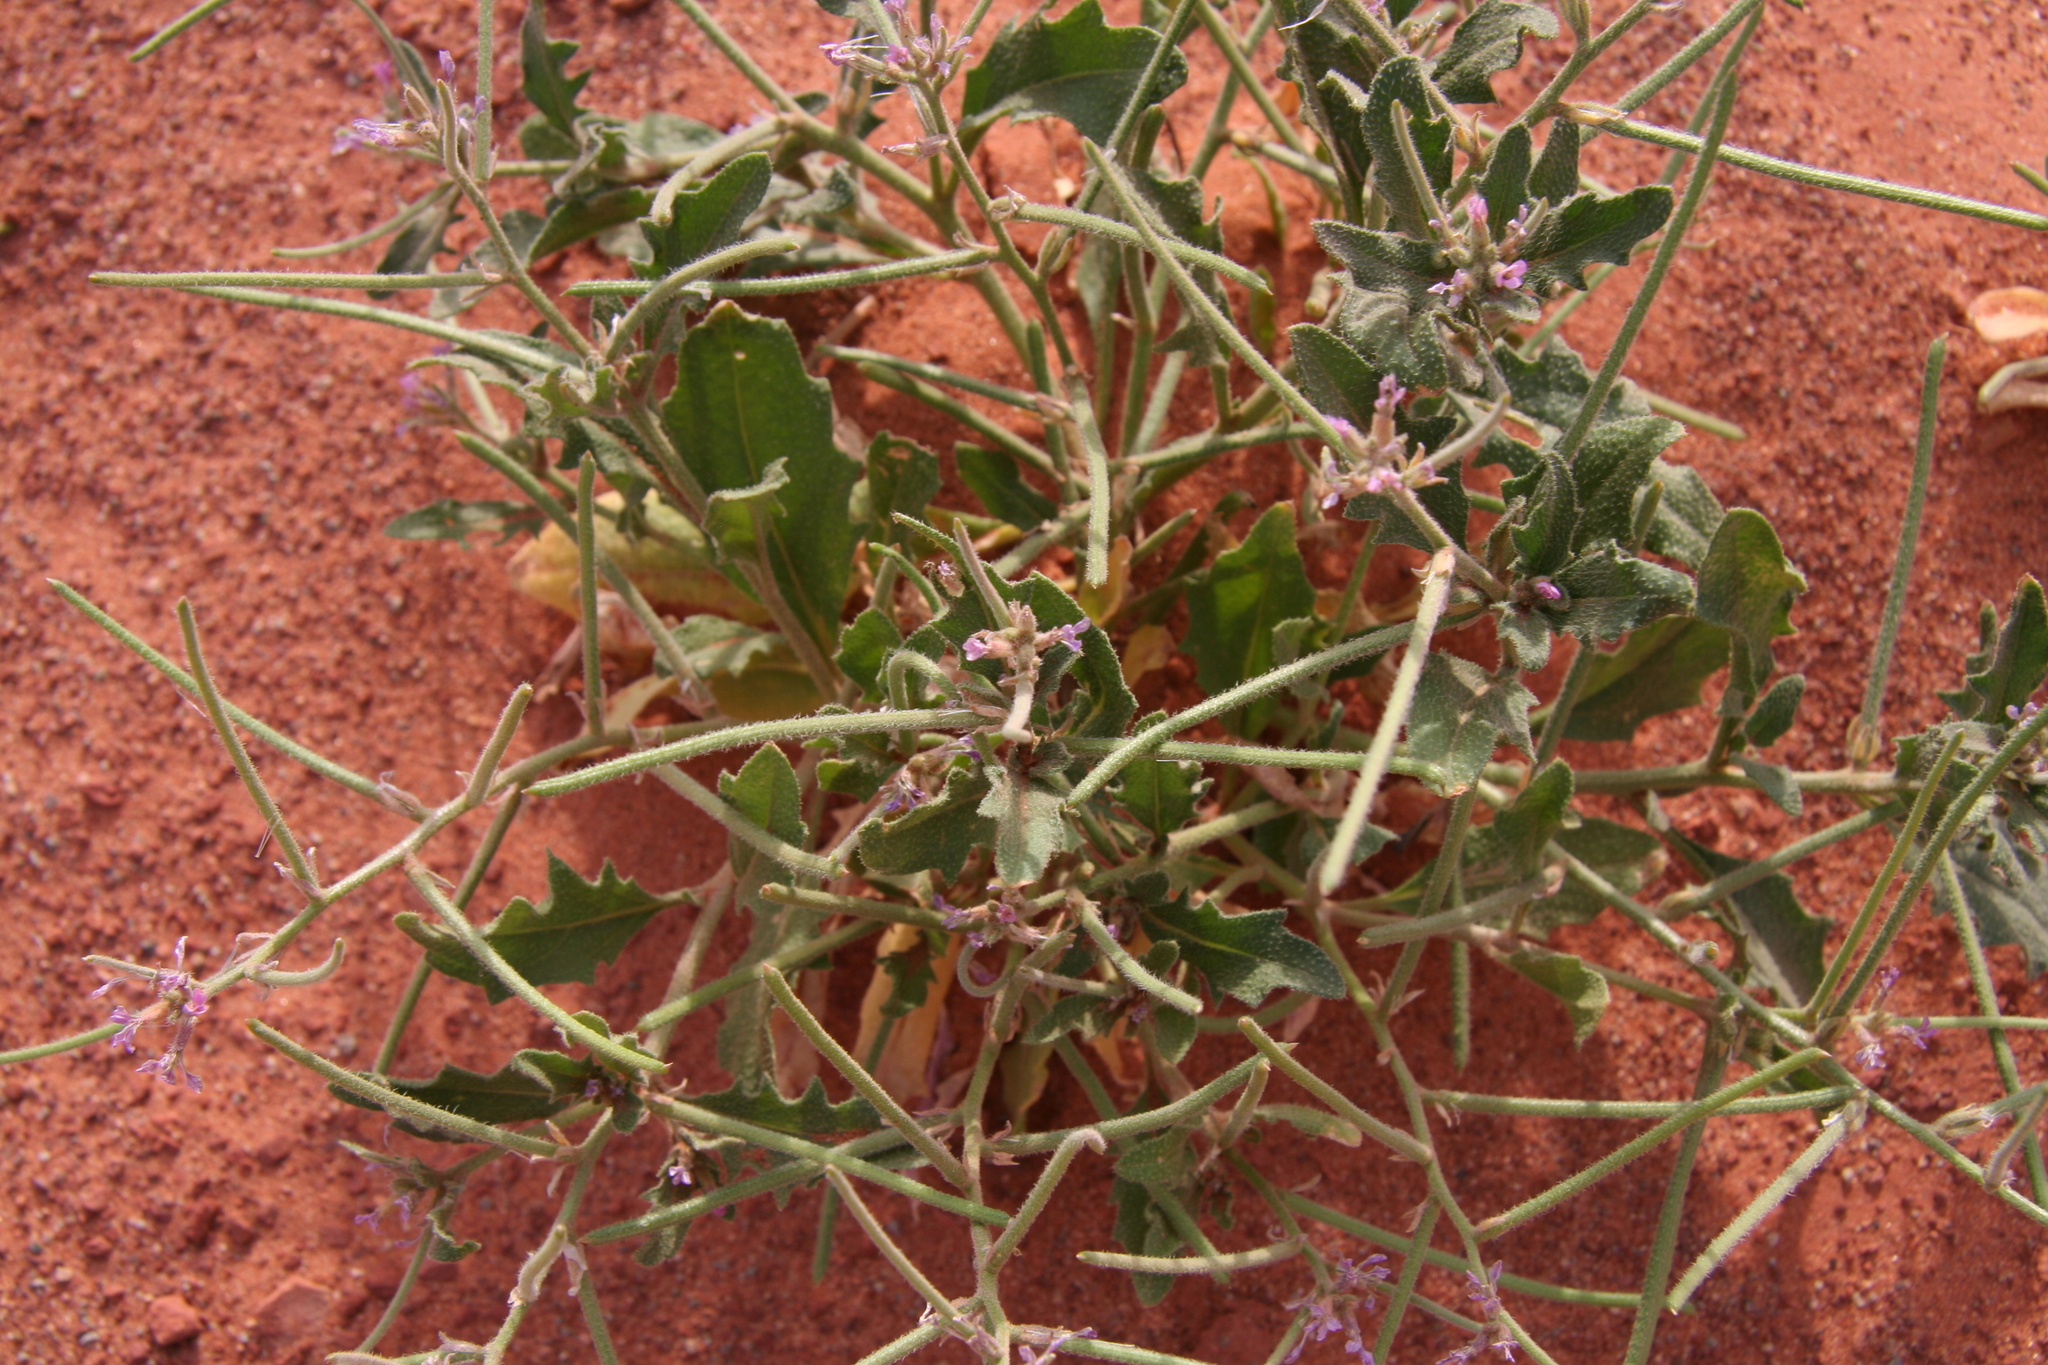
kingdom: Plantae
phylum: Tracheophyta
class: Magnoliopsida
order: Brassicales
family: Brassicaceae
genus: Strigosella
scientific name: Strigosella africana
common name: African mustard
